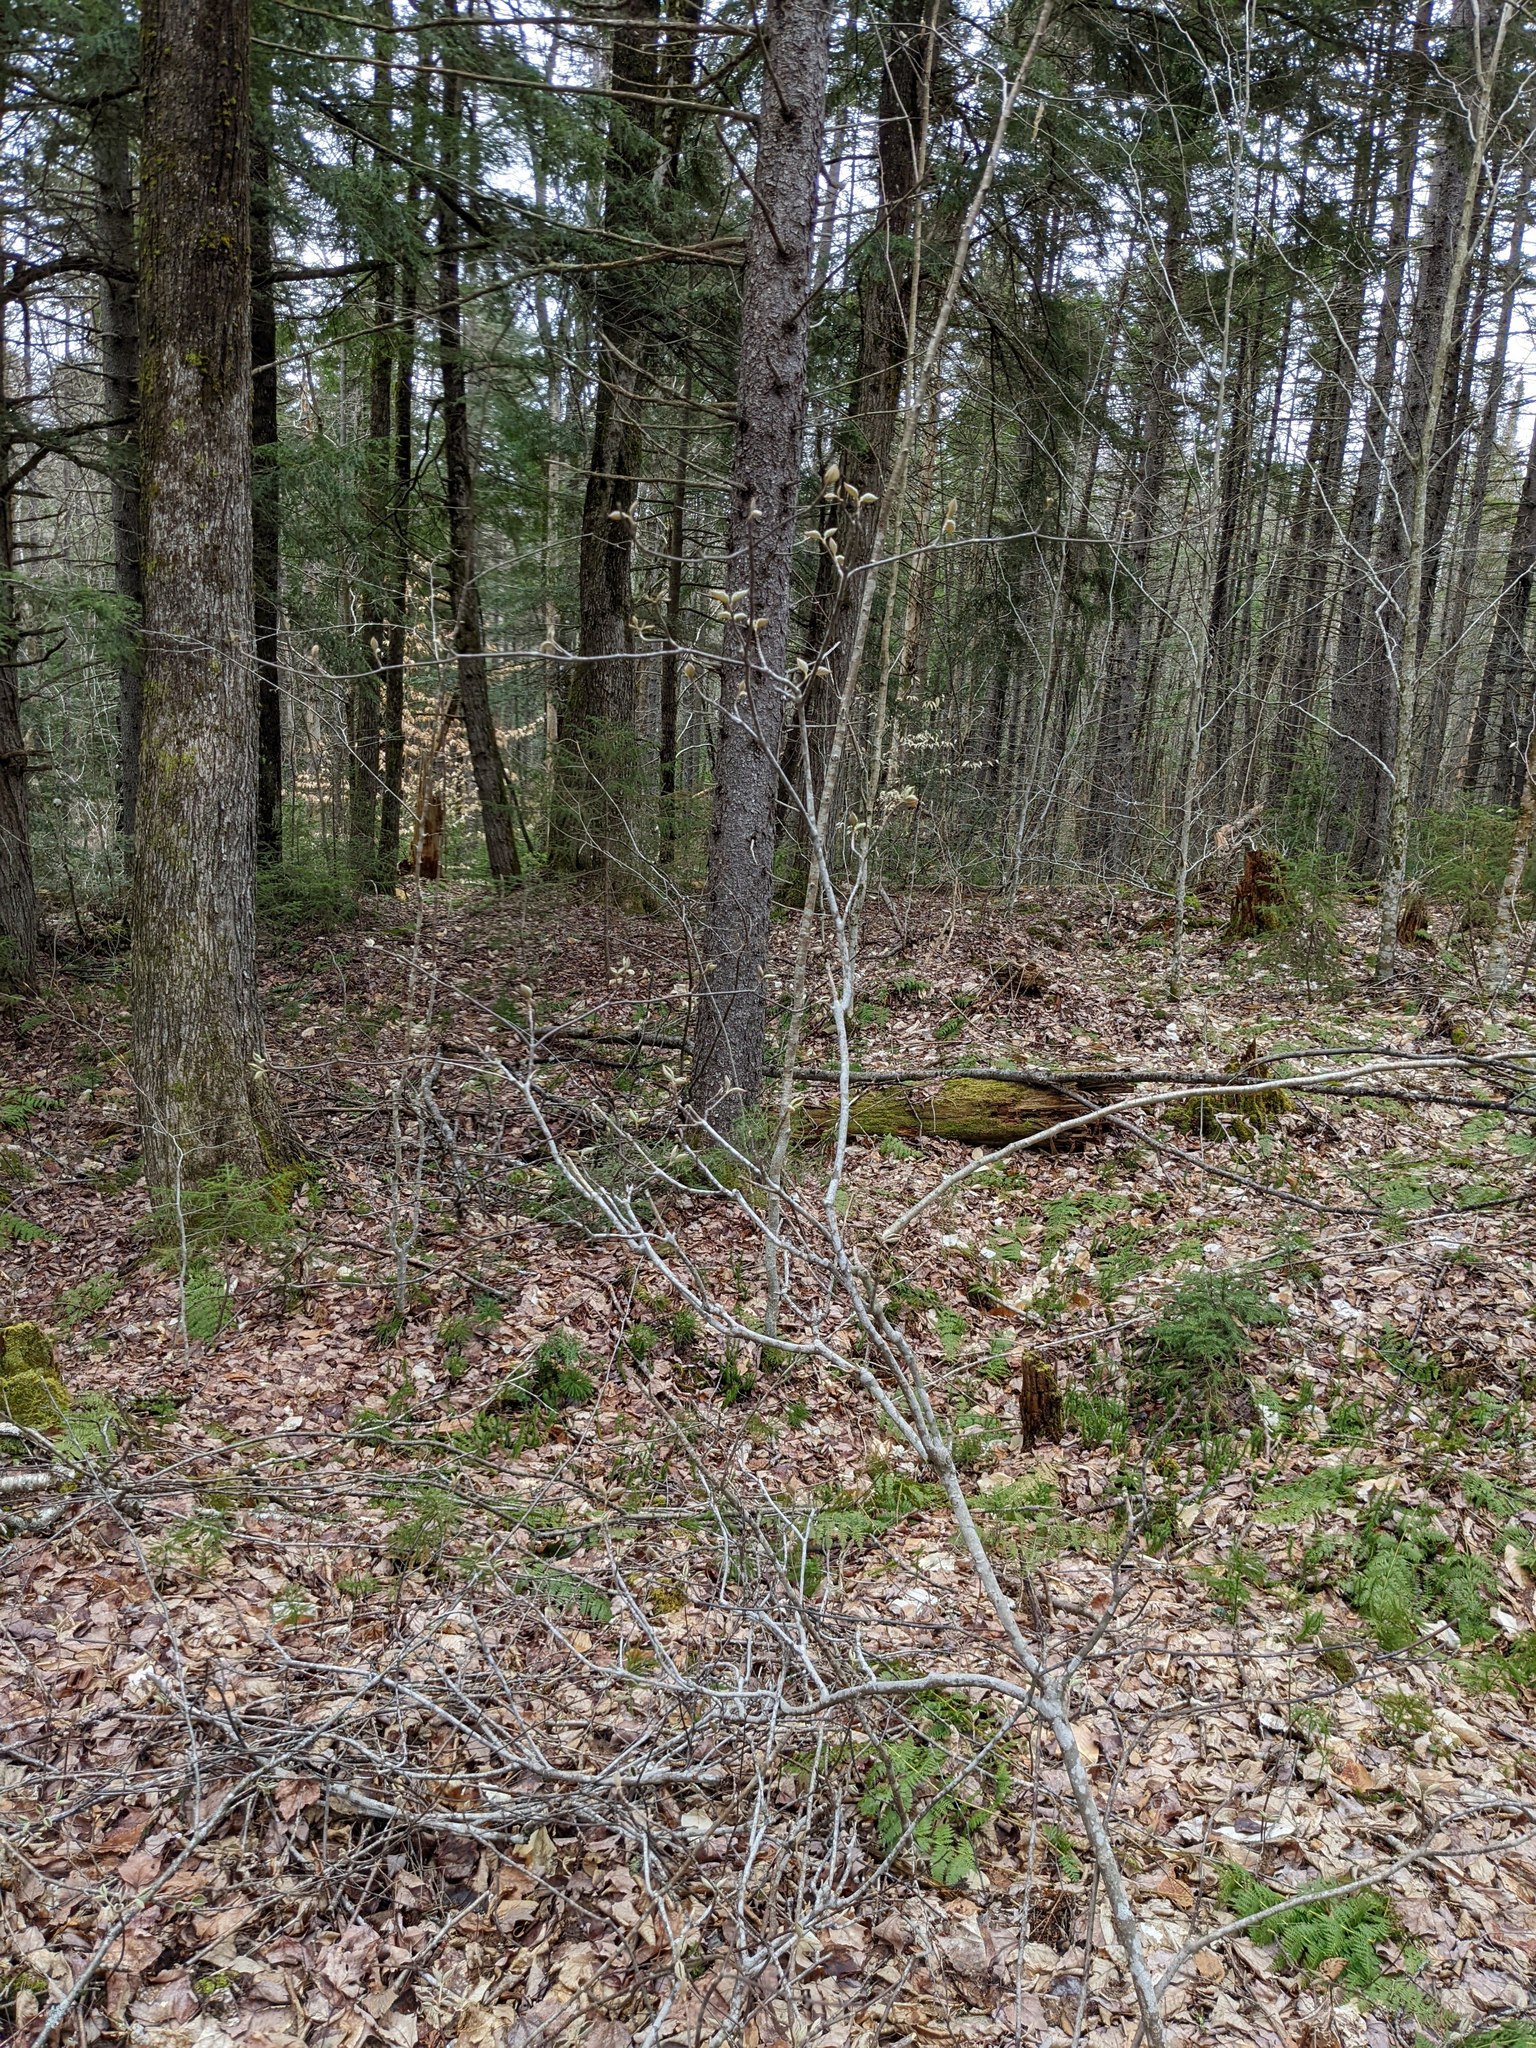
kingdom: Plantae
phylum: Tracheophyta
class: Magnoliopsida
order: Dipsacales
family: Viburnaceae
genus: Viburnum
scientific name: Viburnum lantanoides
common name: Hobblebush
